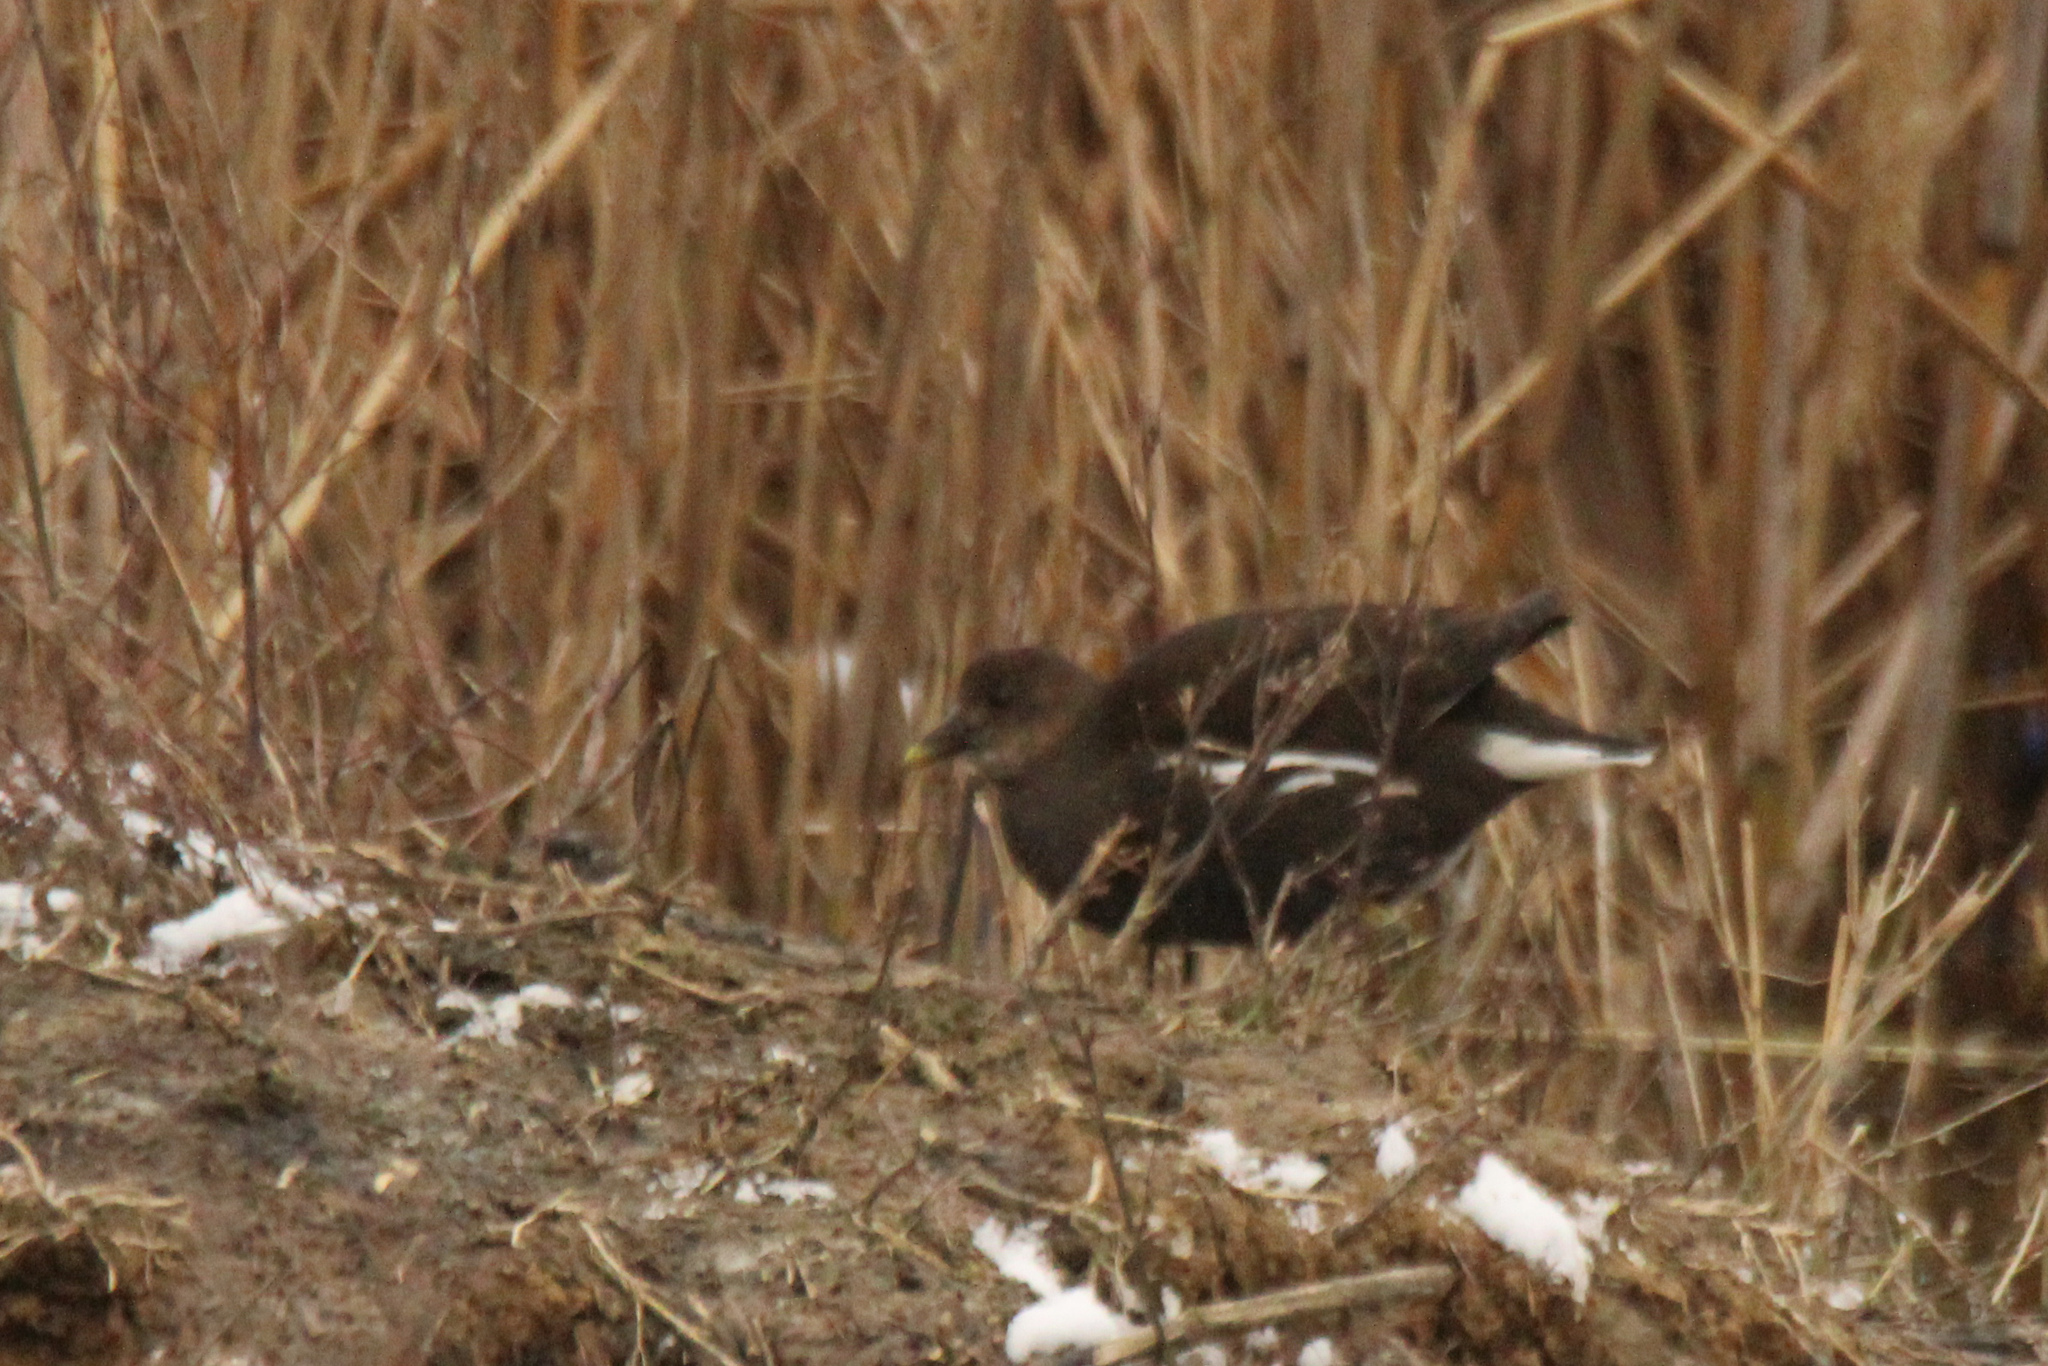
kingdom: Animalia
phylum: Chordata
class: Aves
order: Gruiformes
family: Rallidae
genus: Gallinula
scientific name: Gallinula chloropus
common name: Common moorhen
